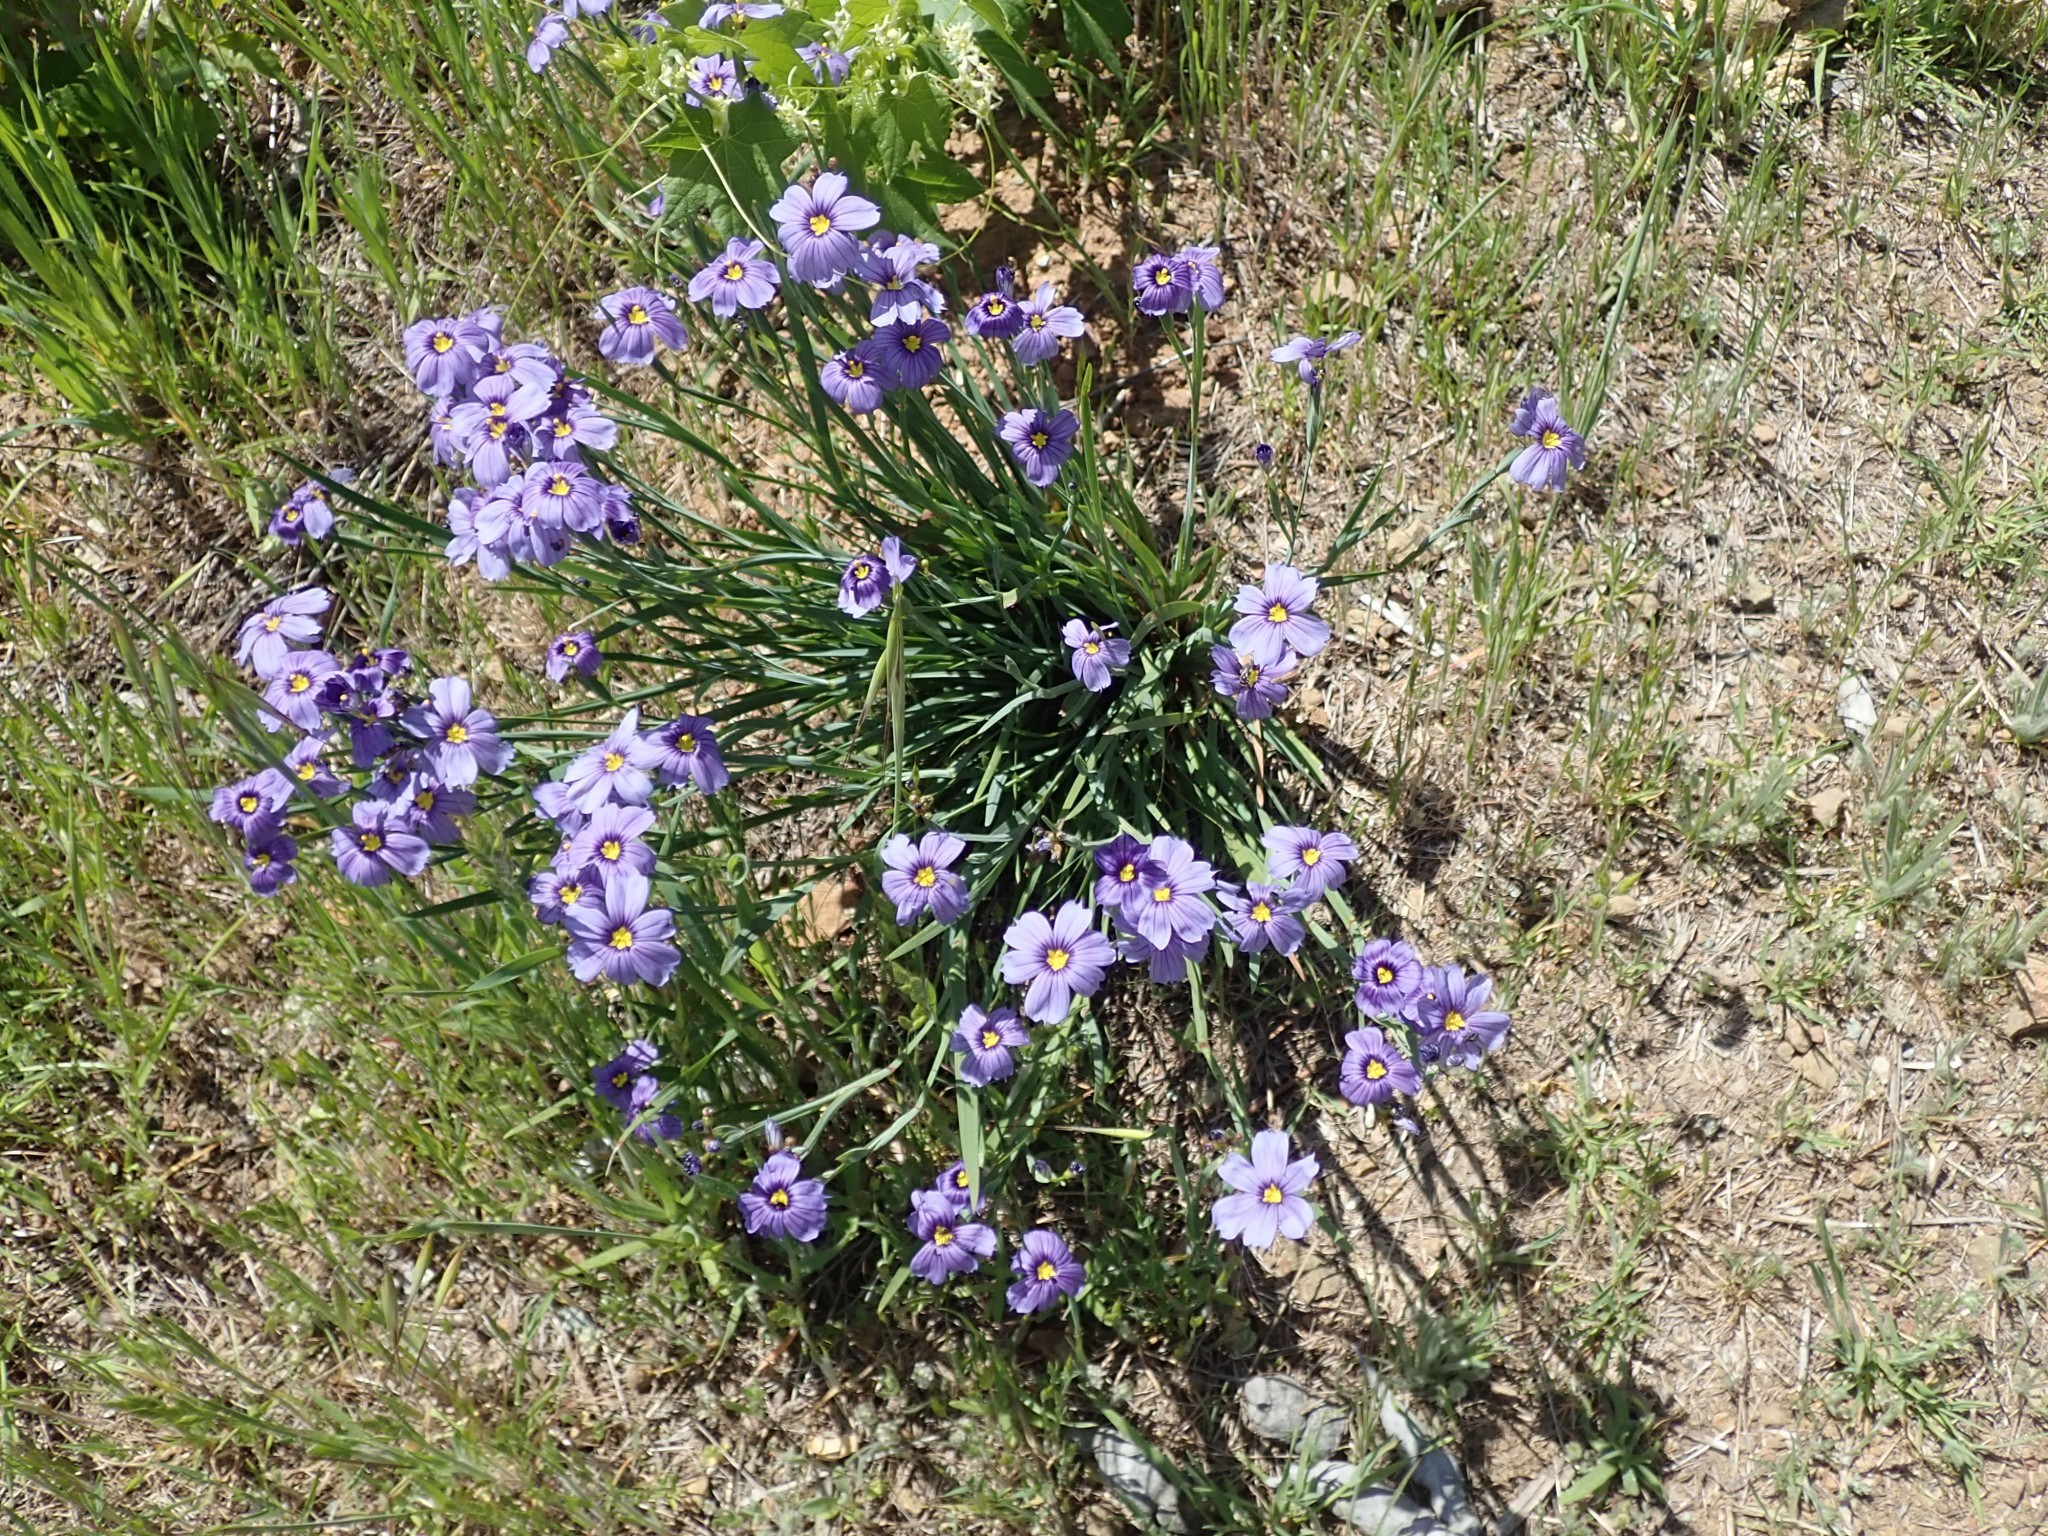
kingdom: Plantae
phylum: Tracheophyta
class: Liliopsida
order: Asparagales
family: Iridaceae
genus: Sisyrinchium
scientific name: Sisyrinchium bellum
